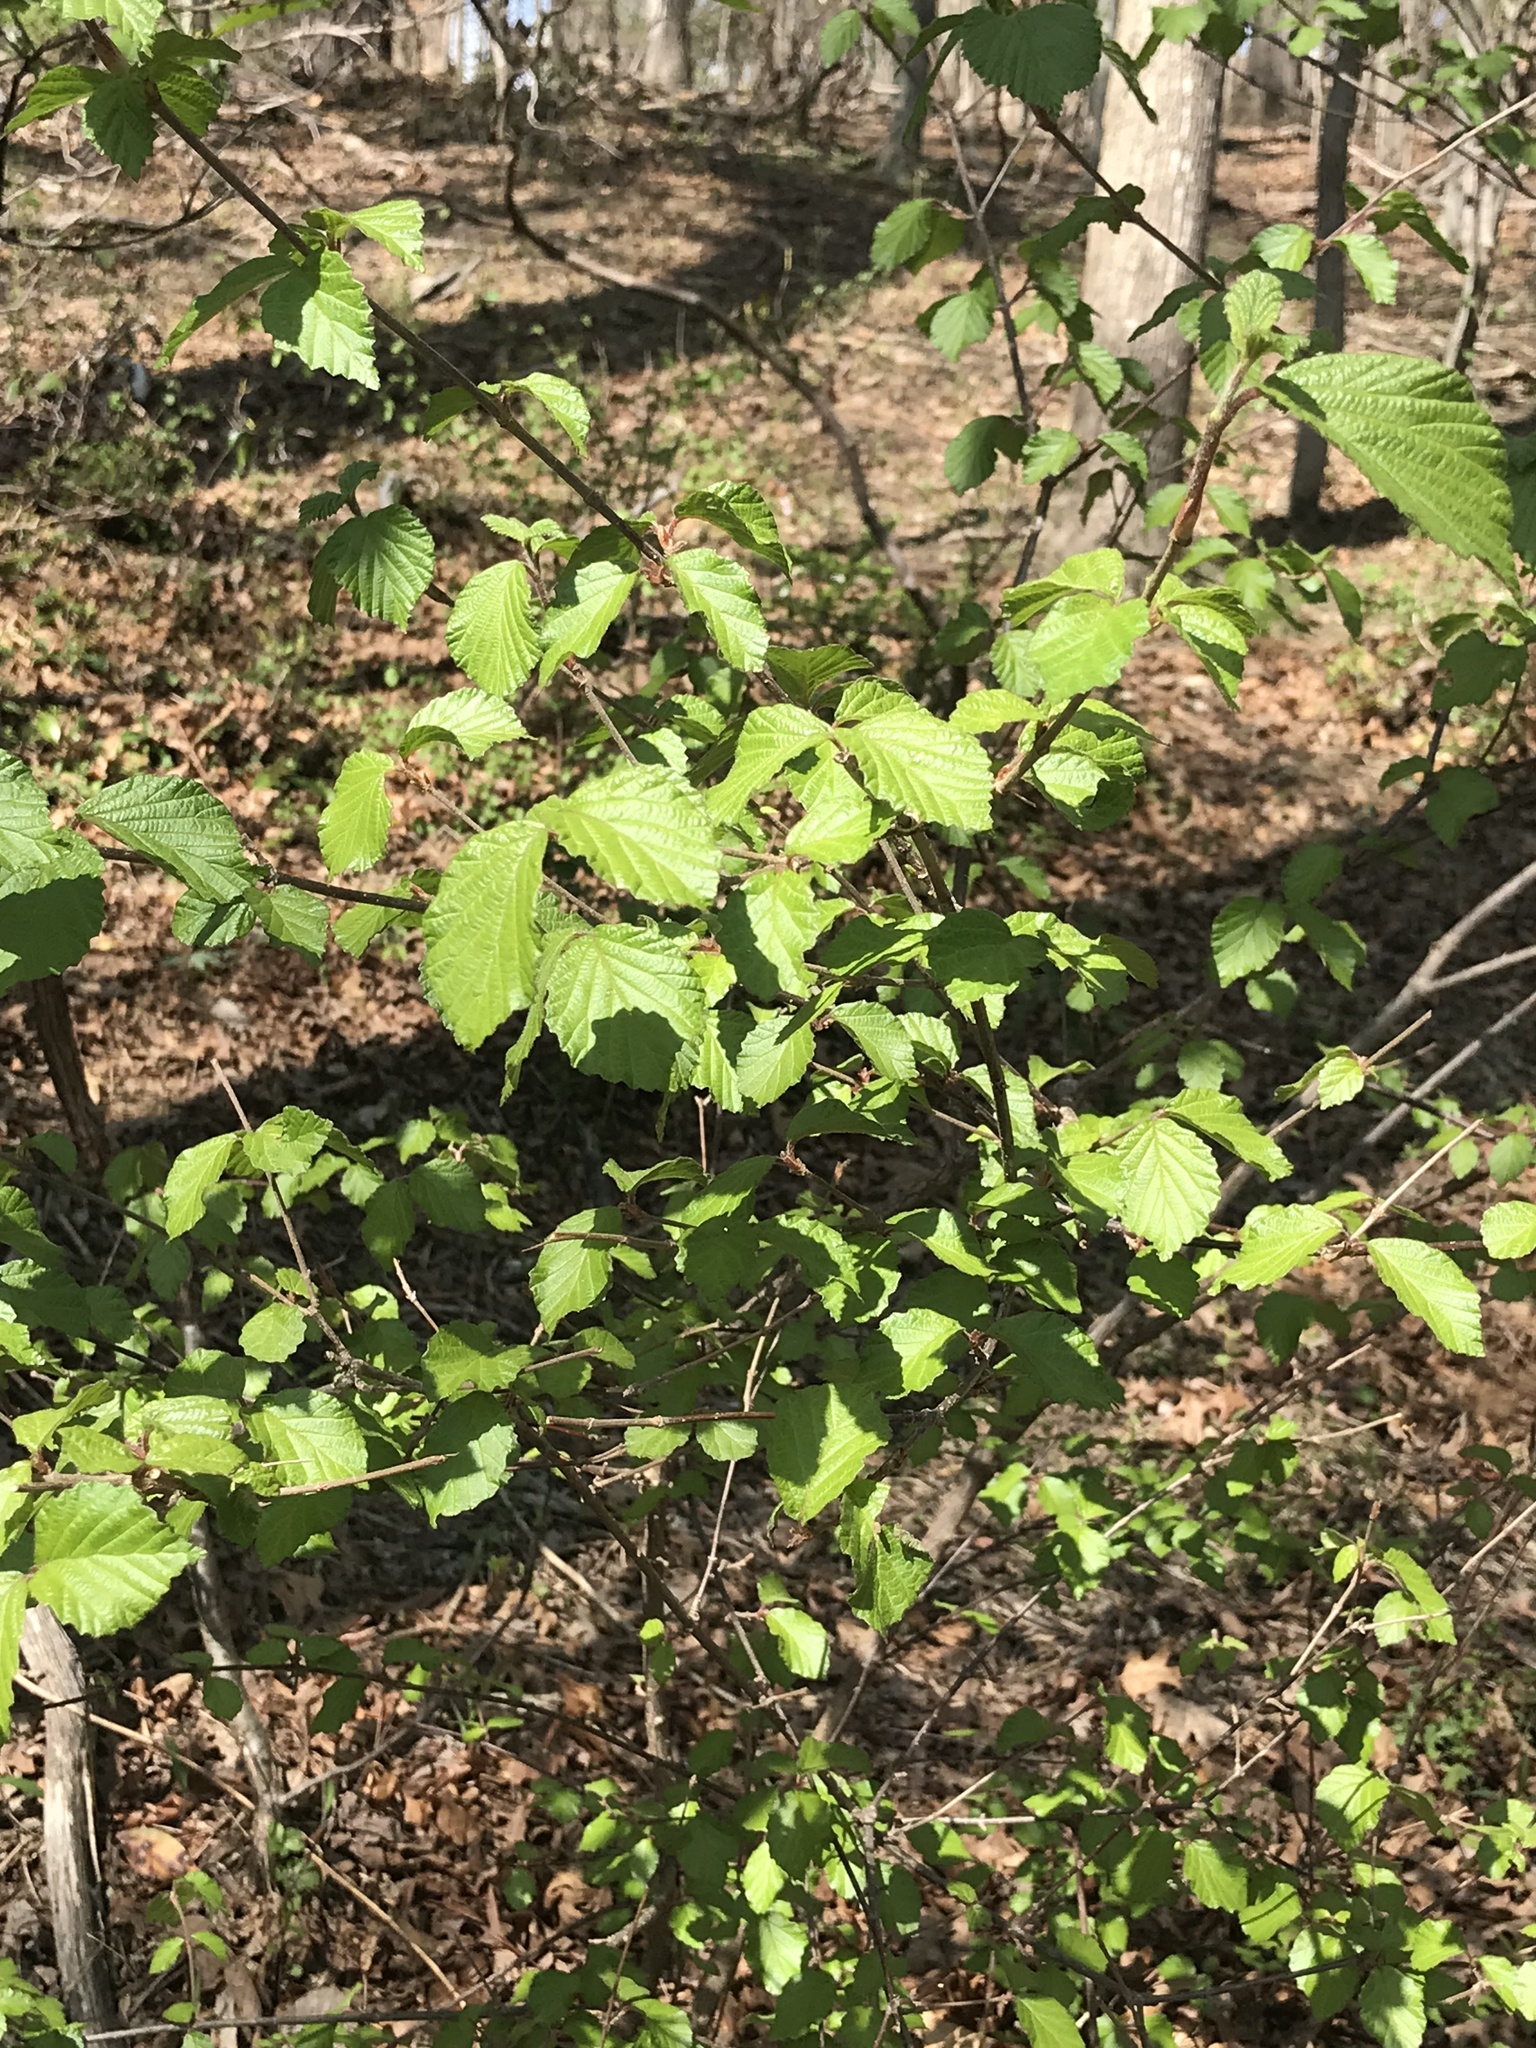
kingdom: Plantae
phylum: Tracheophyta
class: Magnoliopsida
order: Dipsacales
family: Viburnaceae
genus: Viburnum
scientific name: Viburnum dilatatum
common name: Linden arrowwood
